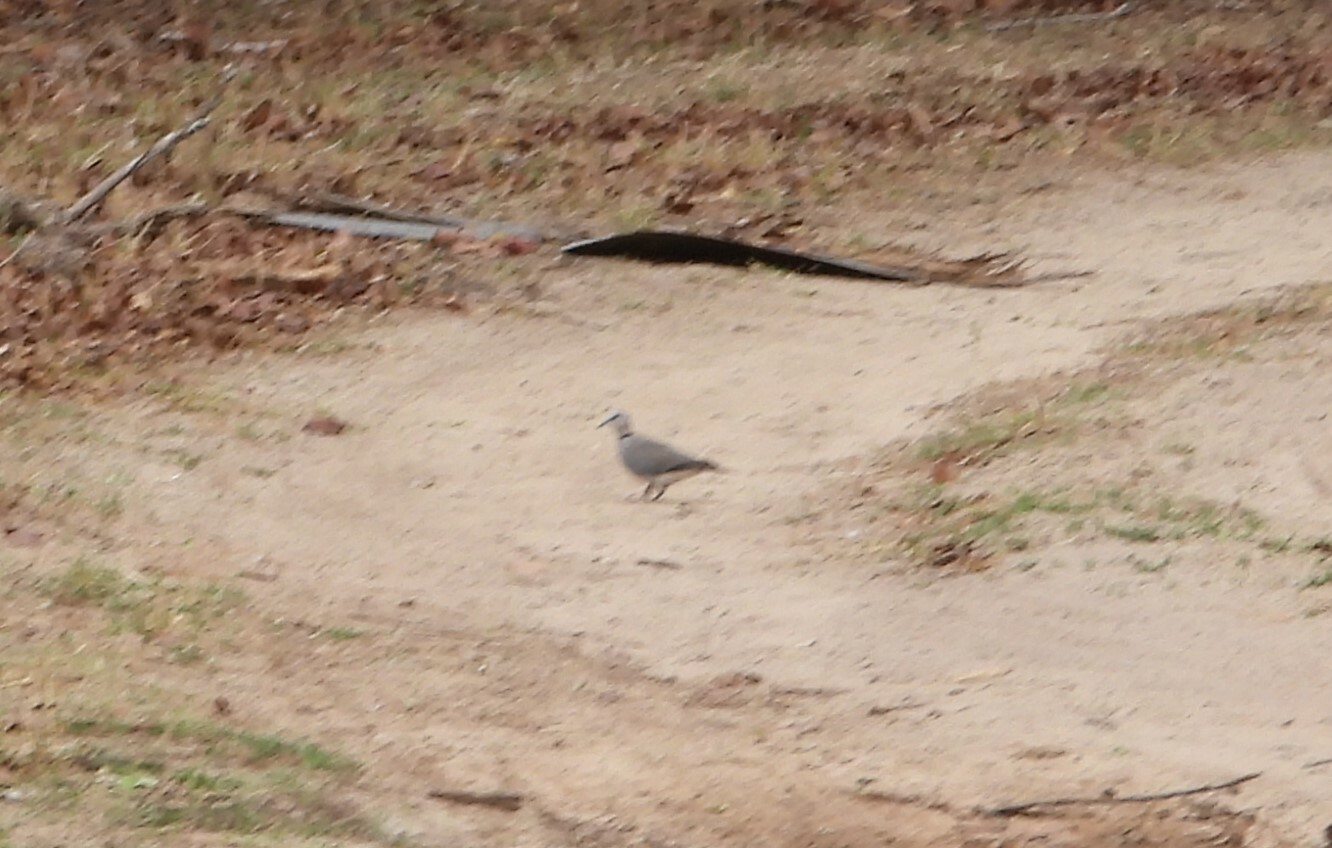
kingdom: Animalia
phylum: Chordata
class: Aves
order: Columbiformes
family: Columbidae
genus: Streptopelia
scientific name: Streptopelia capicola
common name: Ring-necked dove
